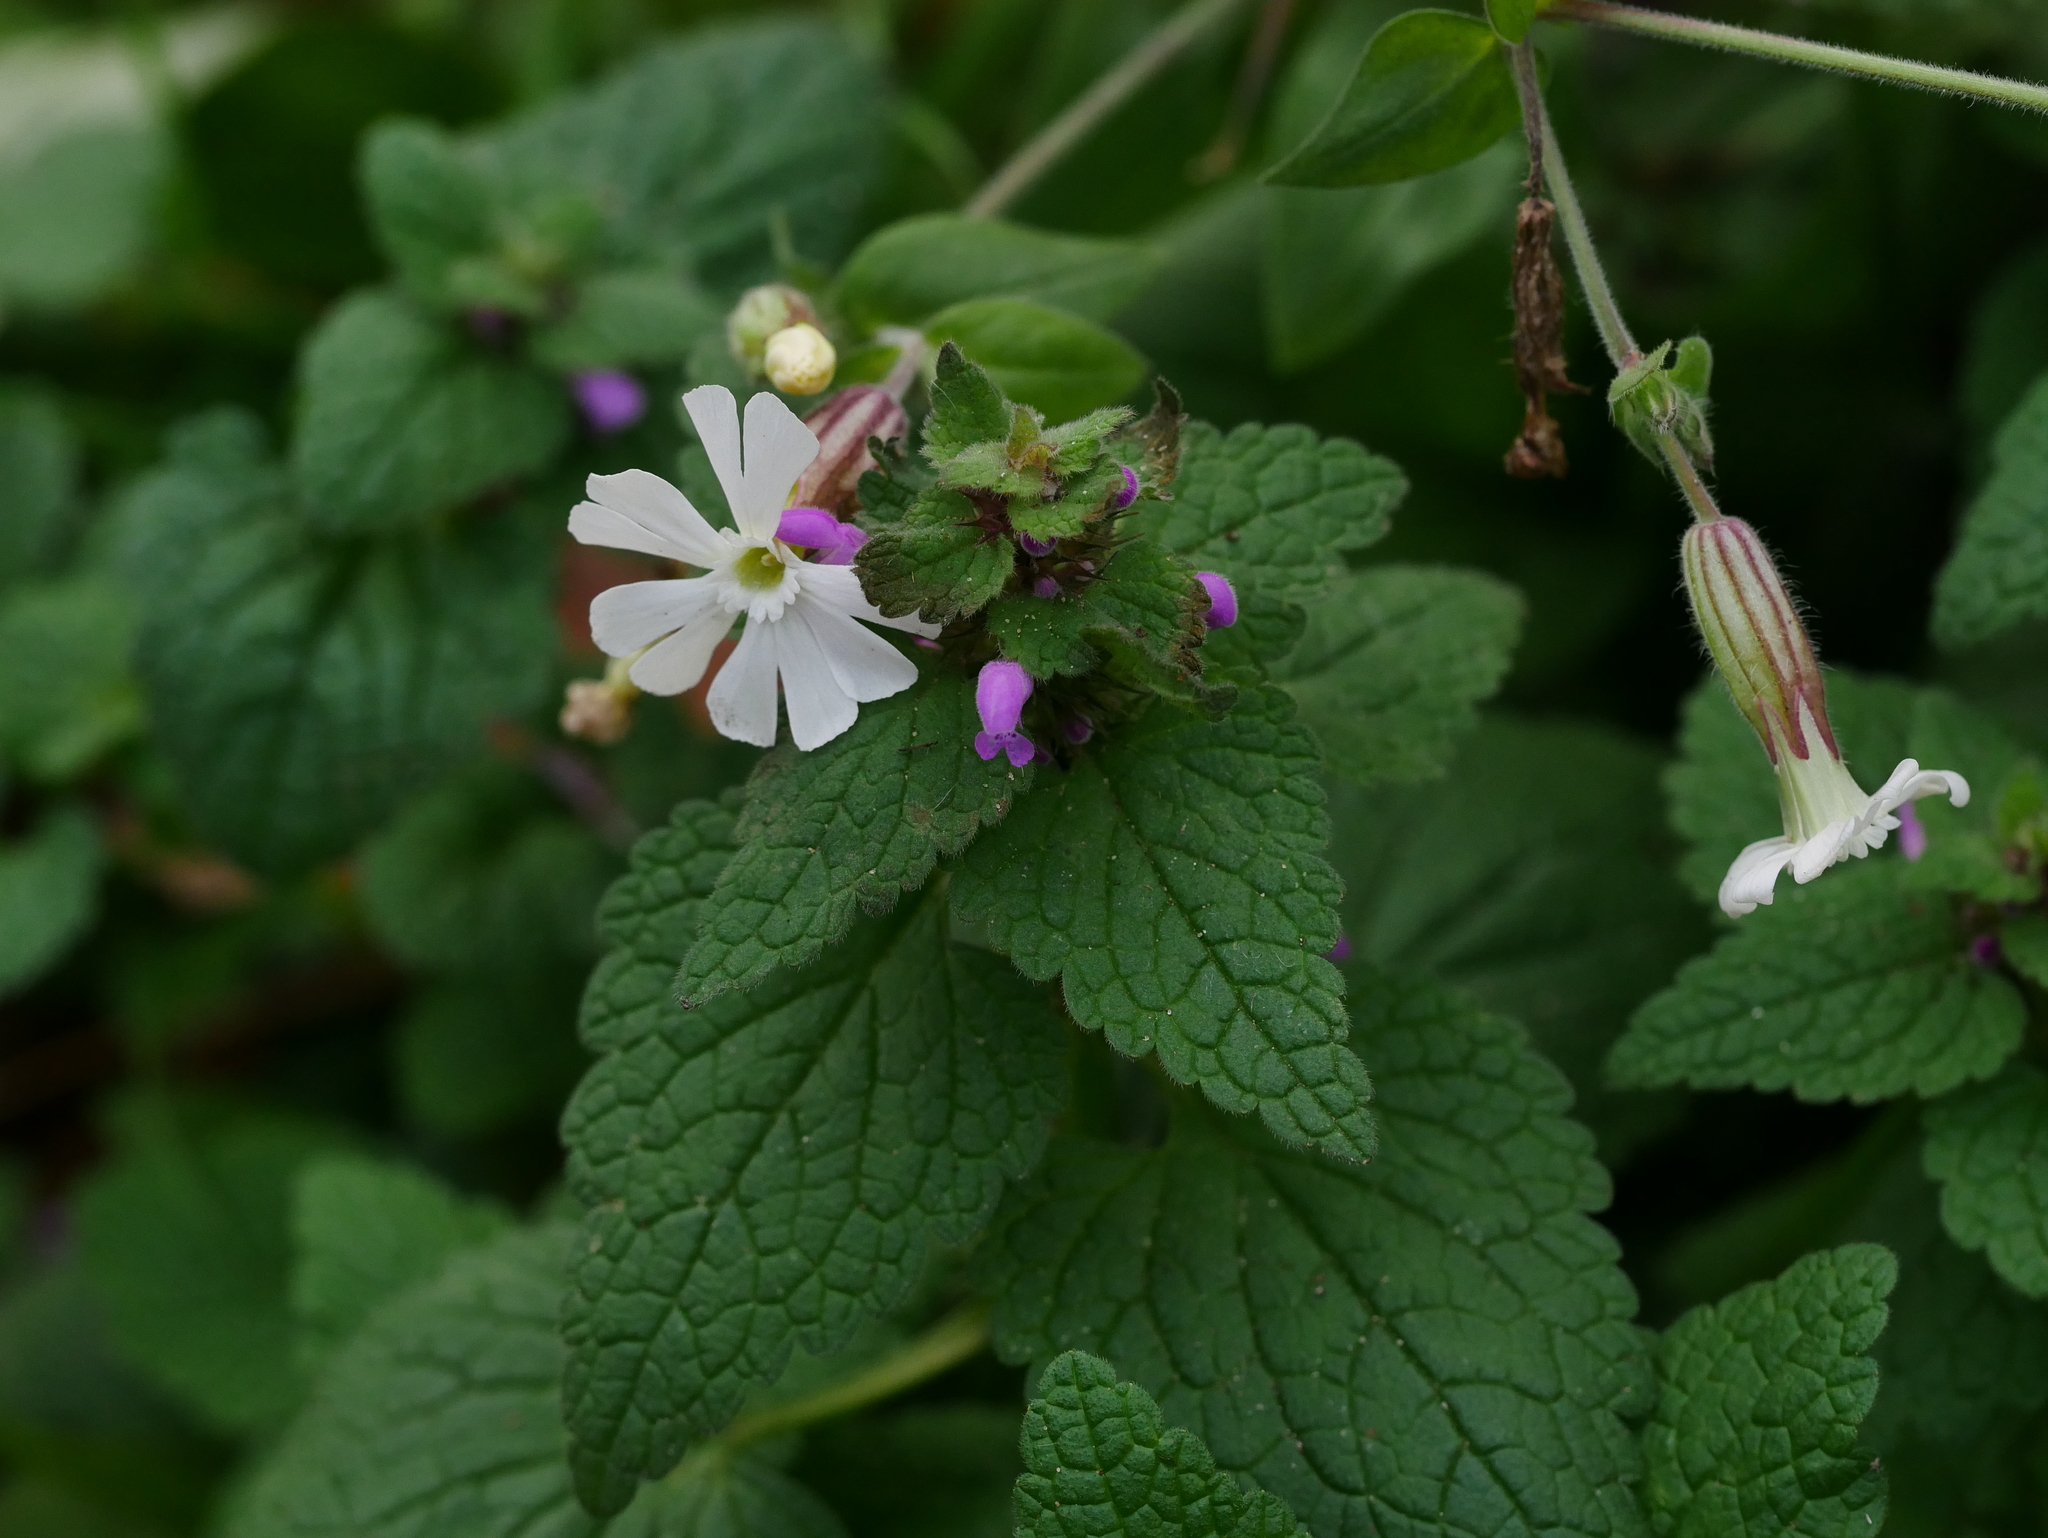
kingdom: Plantae
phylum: Tracheophyta
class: Magnoliopsida
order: Lamiales
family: Lamiaceae
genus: Lamium
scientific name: Lamium purpureum
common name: Red dead-nettle
